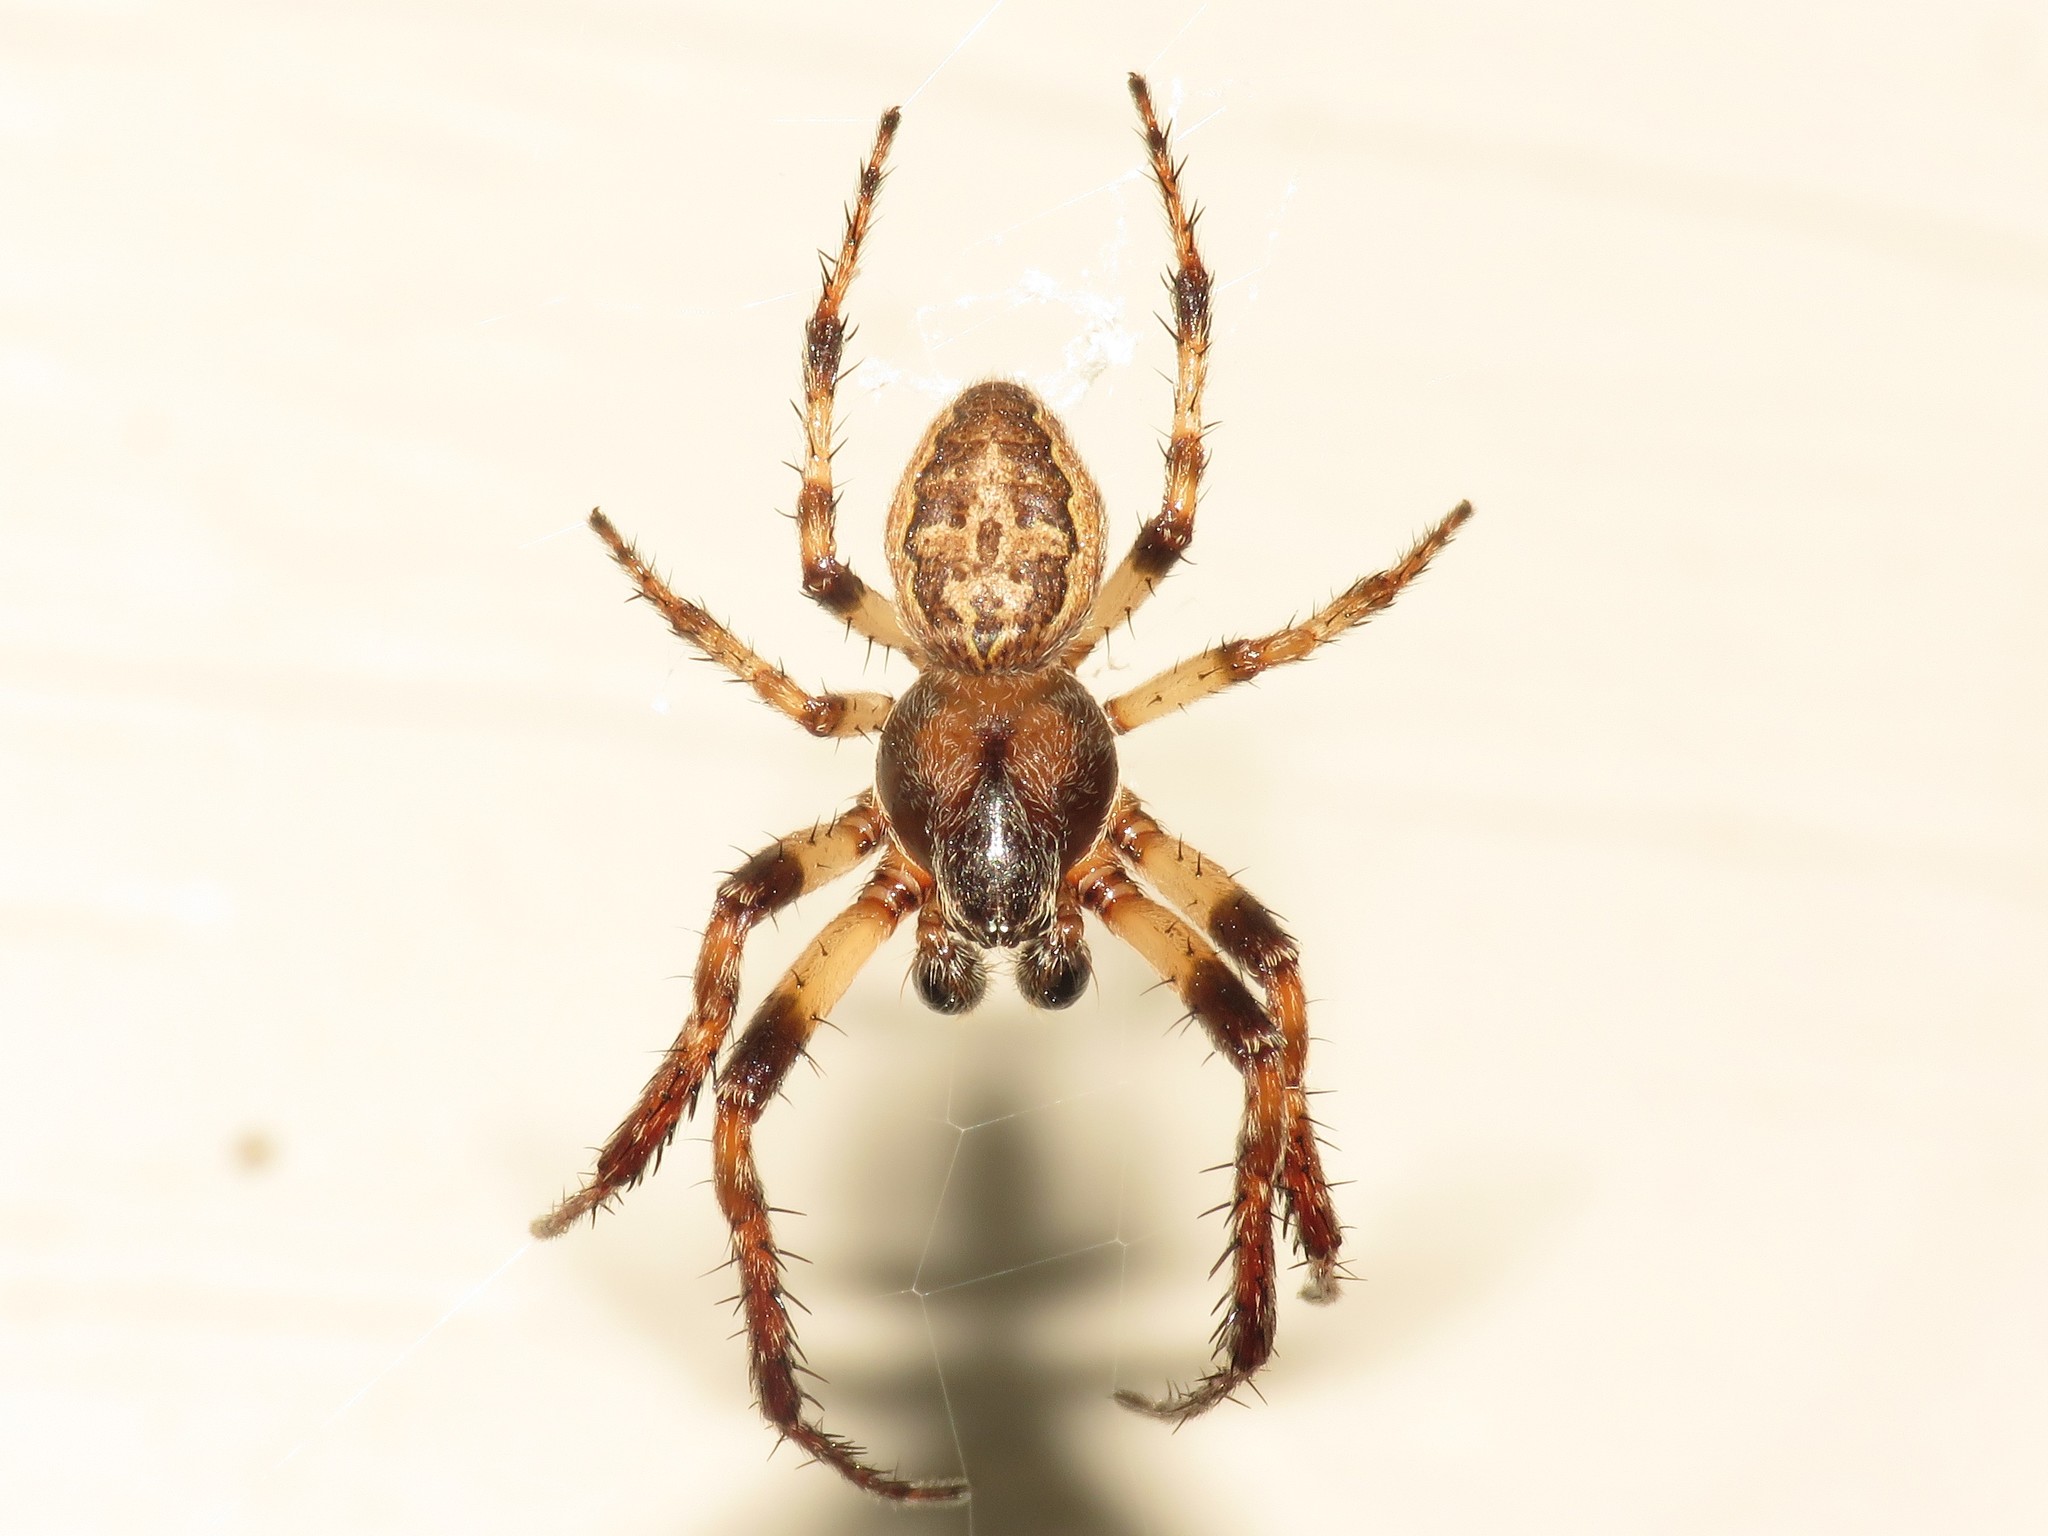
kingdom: Animalia
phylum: Arthropoda
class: Arachnida
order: Araneae
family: Araneidae
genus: Larinioides
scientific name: Larinioides cornutus
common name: Furrow orbweaver
